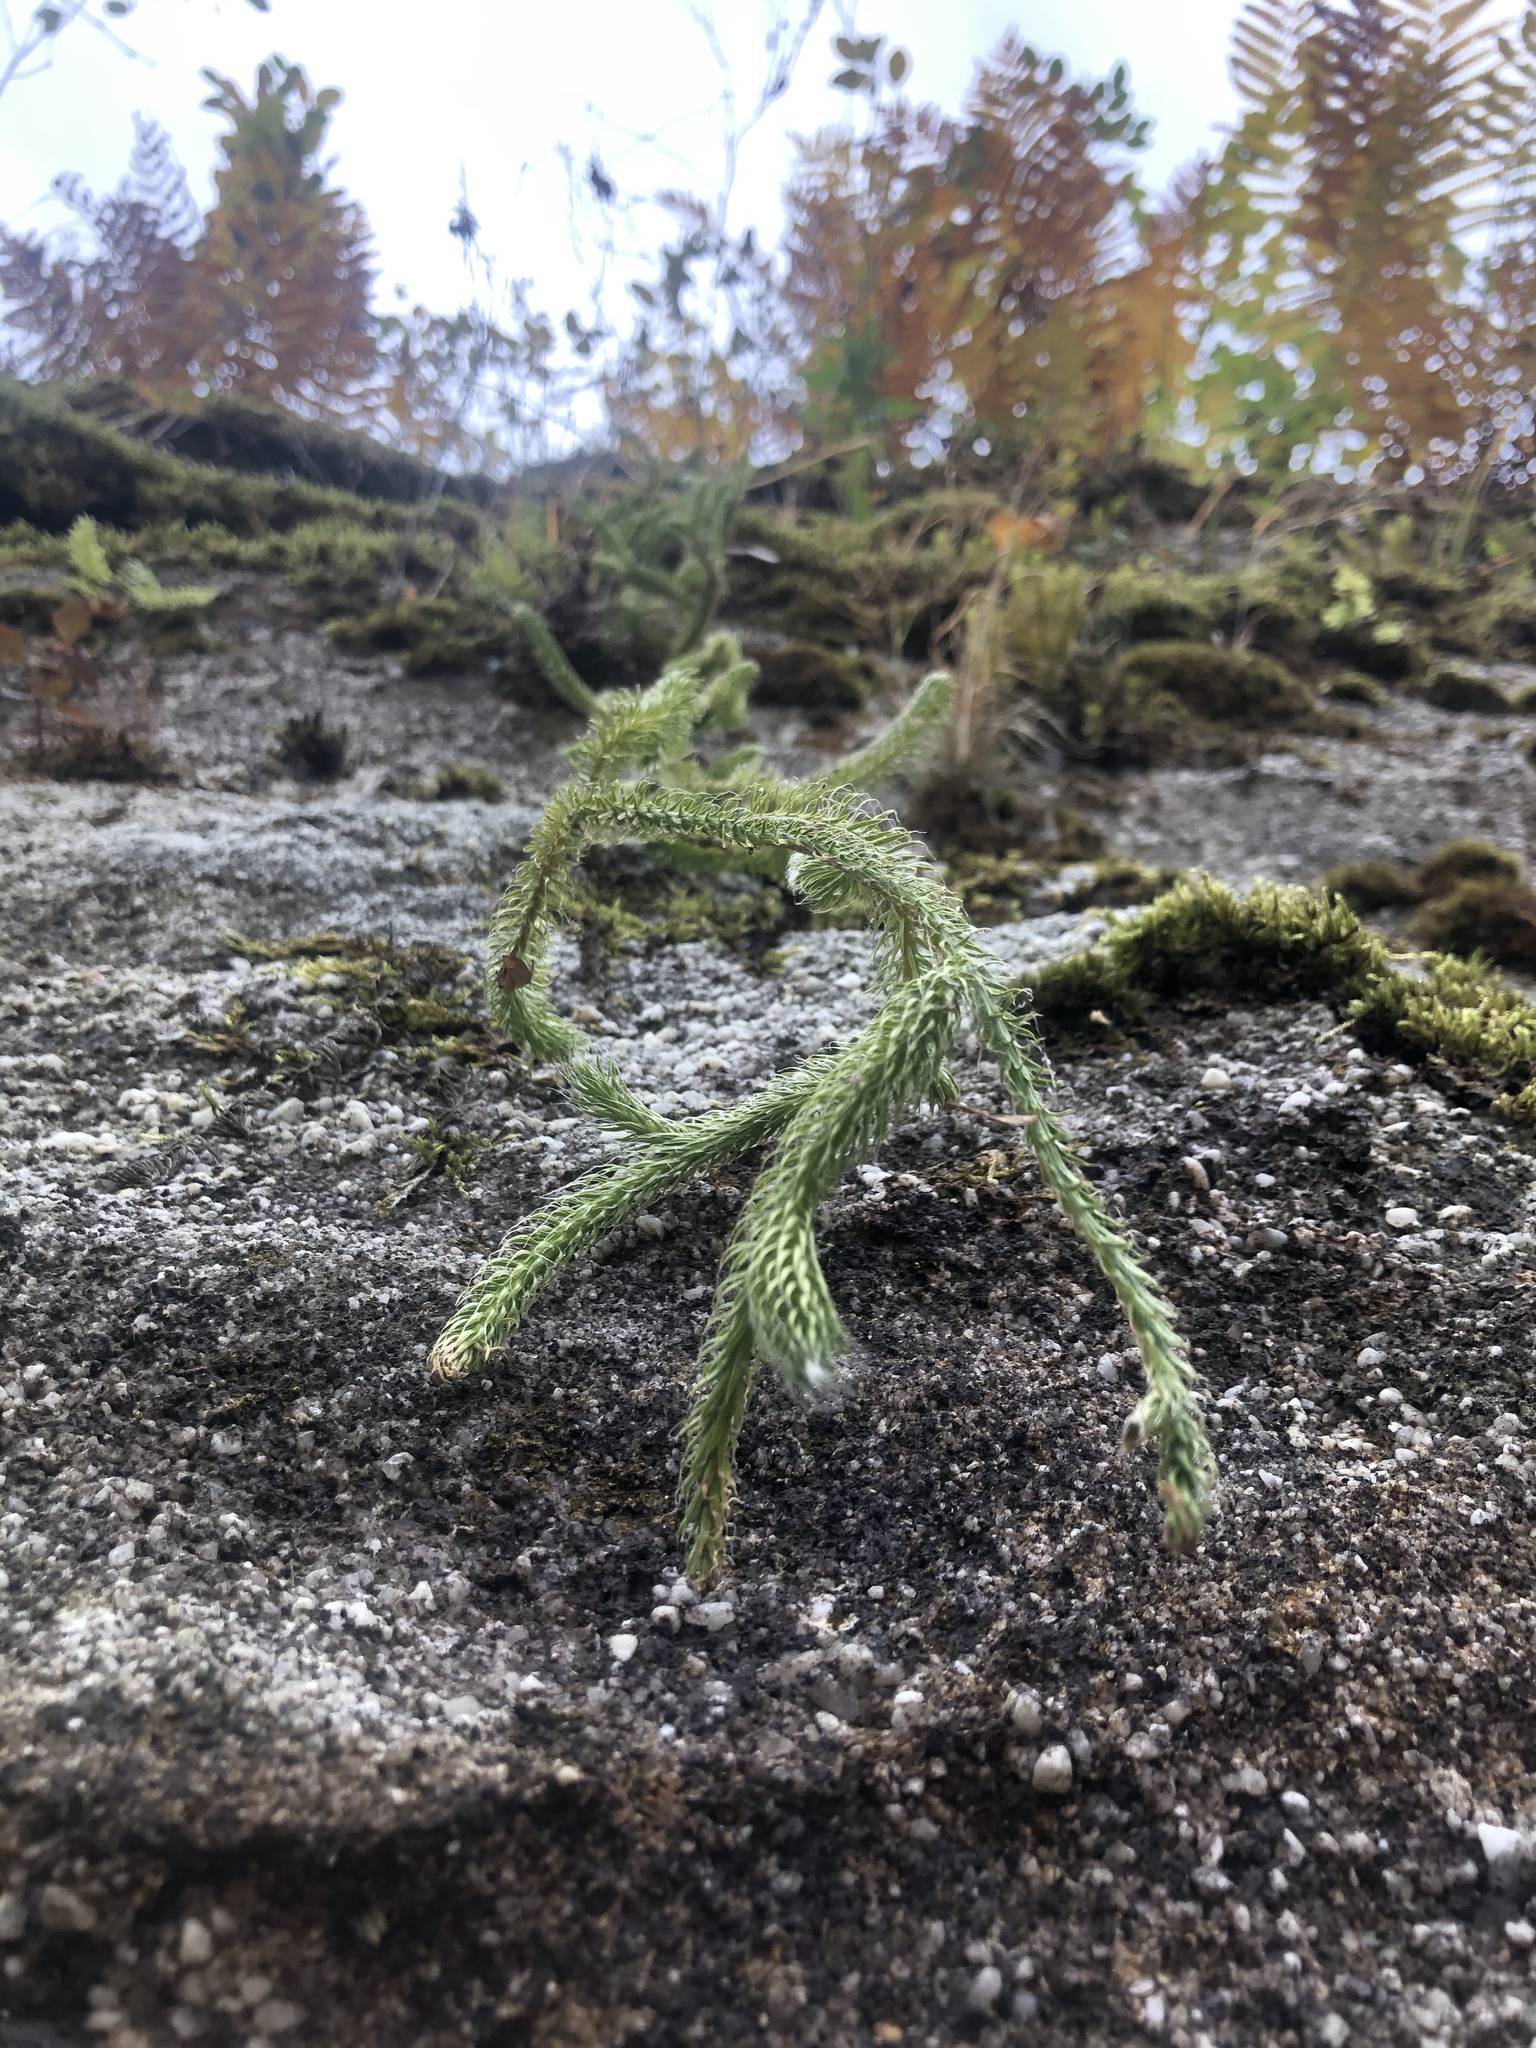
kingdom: Plantae
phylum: Tracheophyta
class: Lycopodiopsida
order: Lycopodiales
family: Lycopodiaceae
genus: Lycopodium
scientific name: Lycopodium clavatum
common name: Stag's-horn clubmoss
